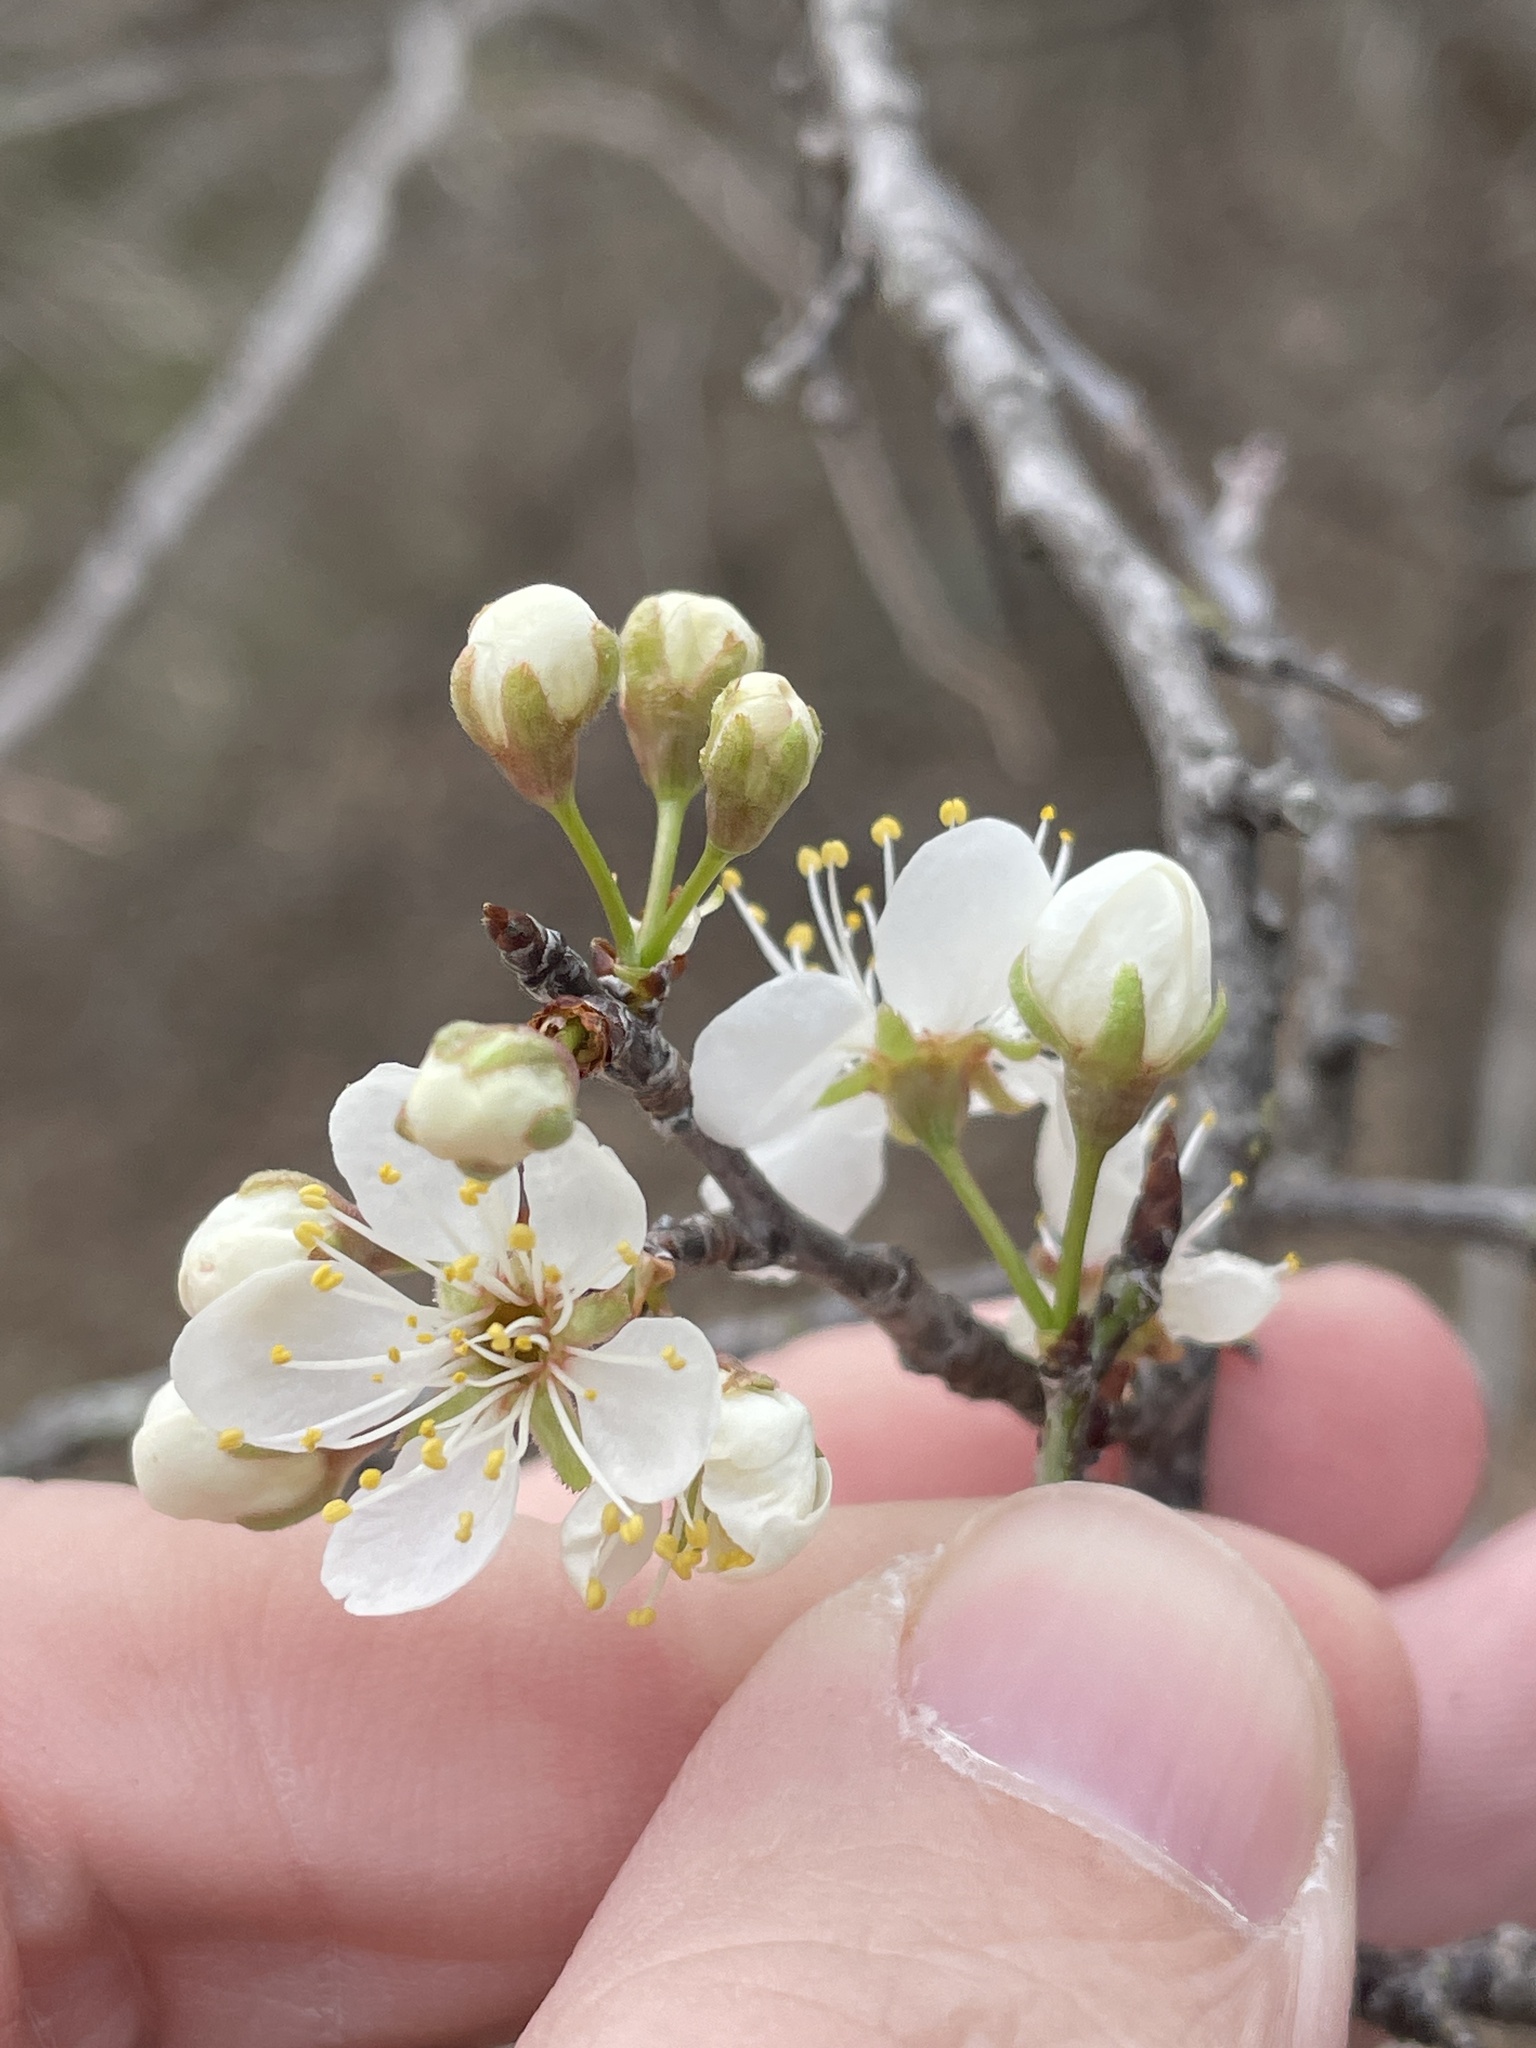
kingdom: Plantae
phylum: Tracheophyta
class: Magnoliopsida
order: Rosales
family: Rosaceae
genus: Prunus
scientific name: Prunus mexicana
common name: Mexican plum
